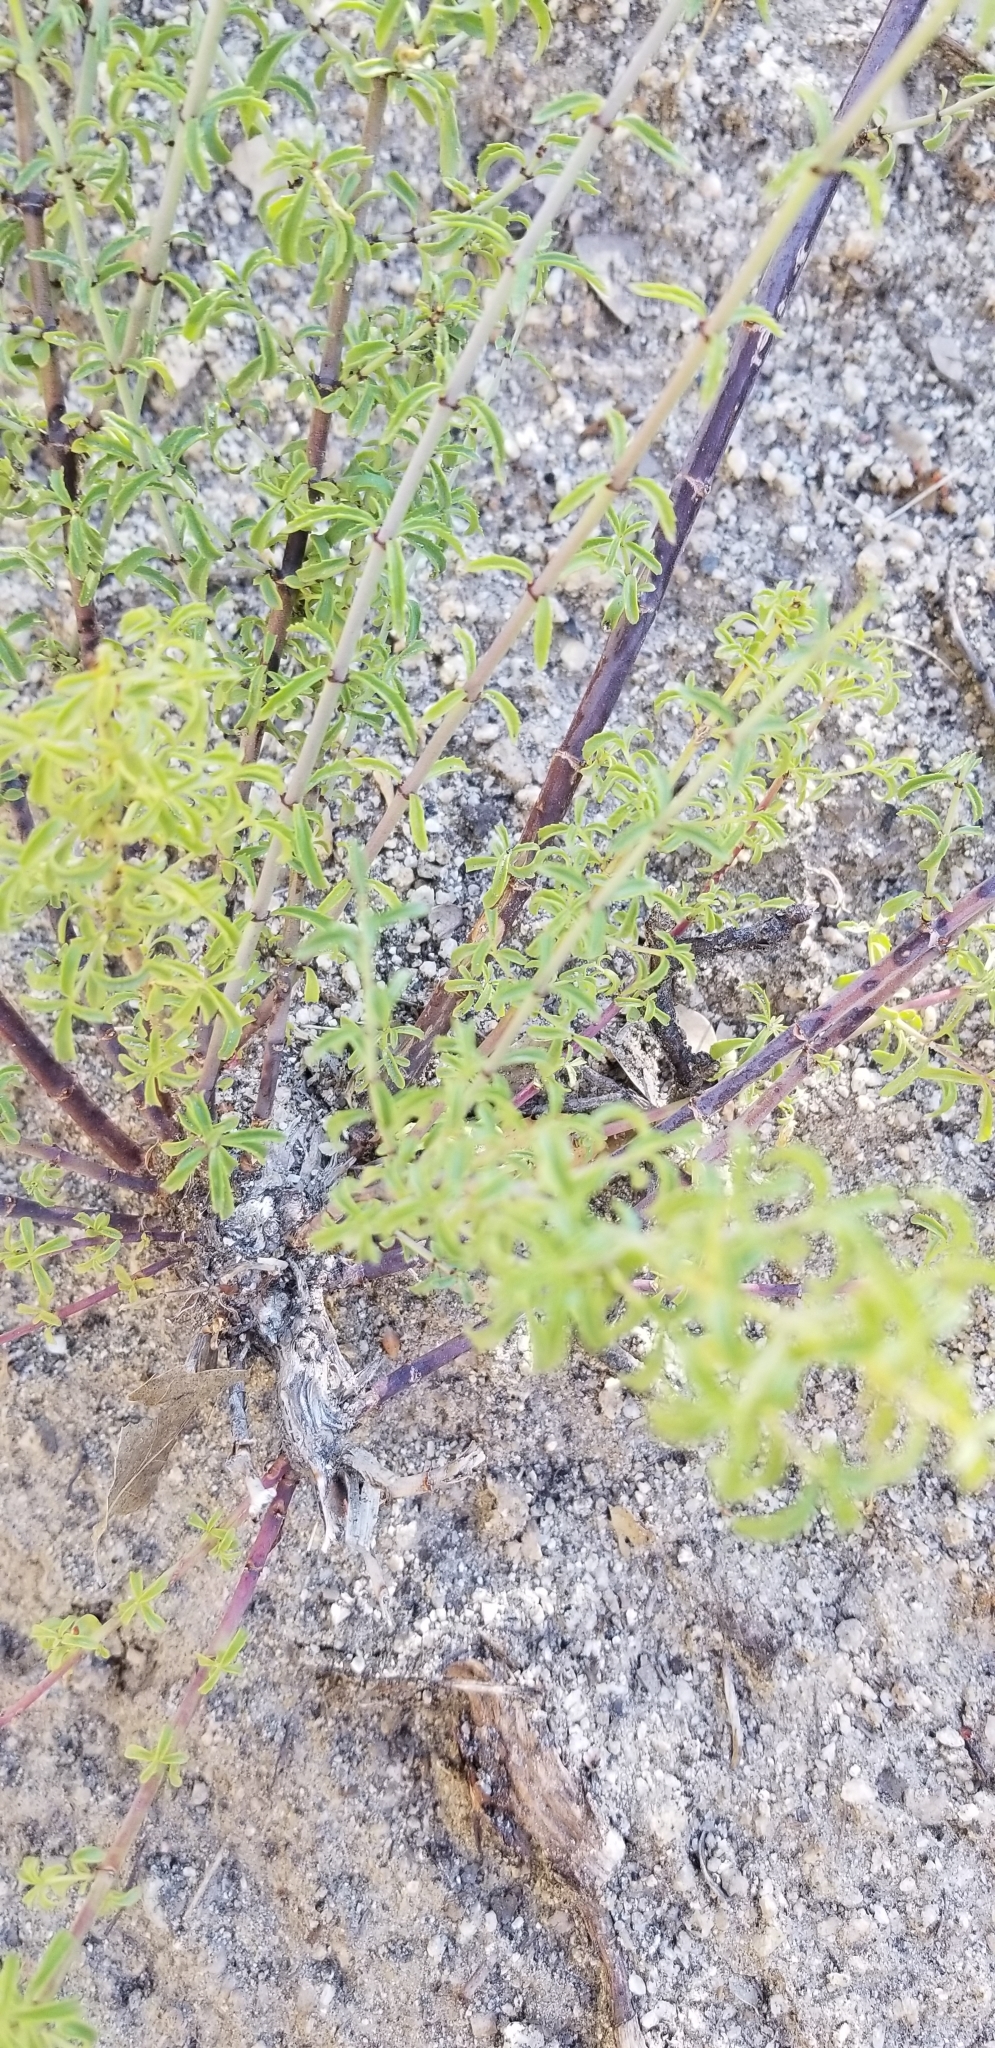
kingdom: Plantae
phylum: Tracheophyta
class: Magnoliopsida
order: Lamiales
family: Plantaginaceae
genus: Keckiella
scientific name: Keckiella ternata
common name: Scarlet keckiella
